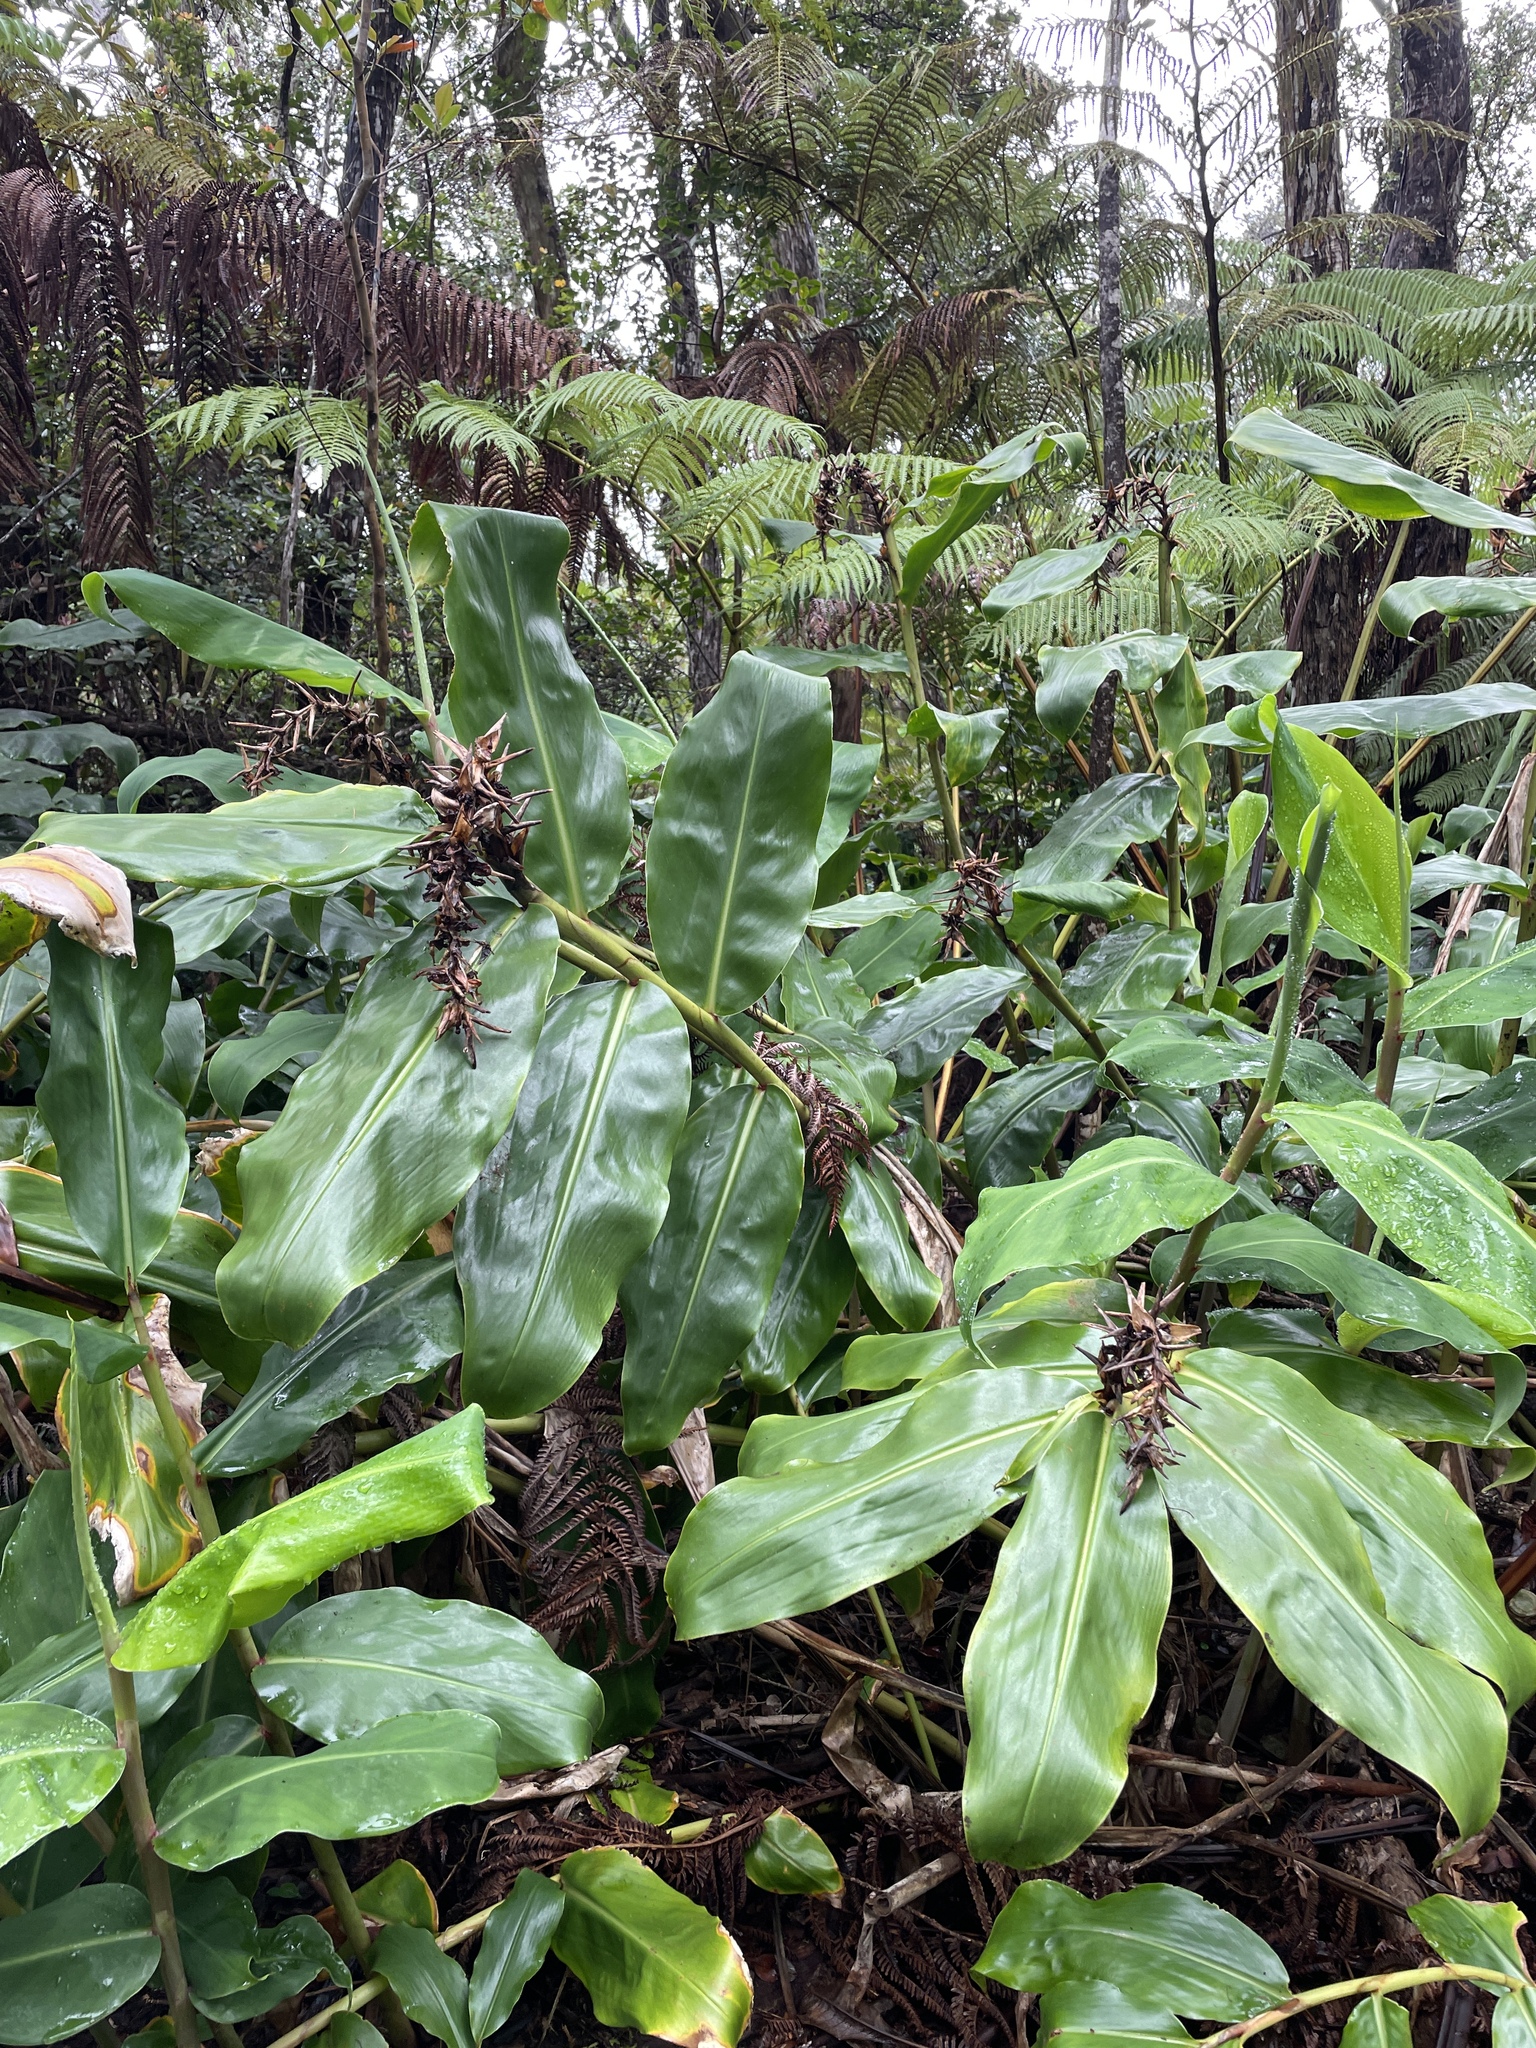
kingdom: Plantae
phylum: Tracheophyta
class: Liliopsida
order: Zingiberales
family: Zingiberaceae
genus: Hedychium
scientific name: Hedychium gardnerianum
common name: Himalayan ginger
